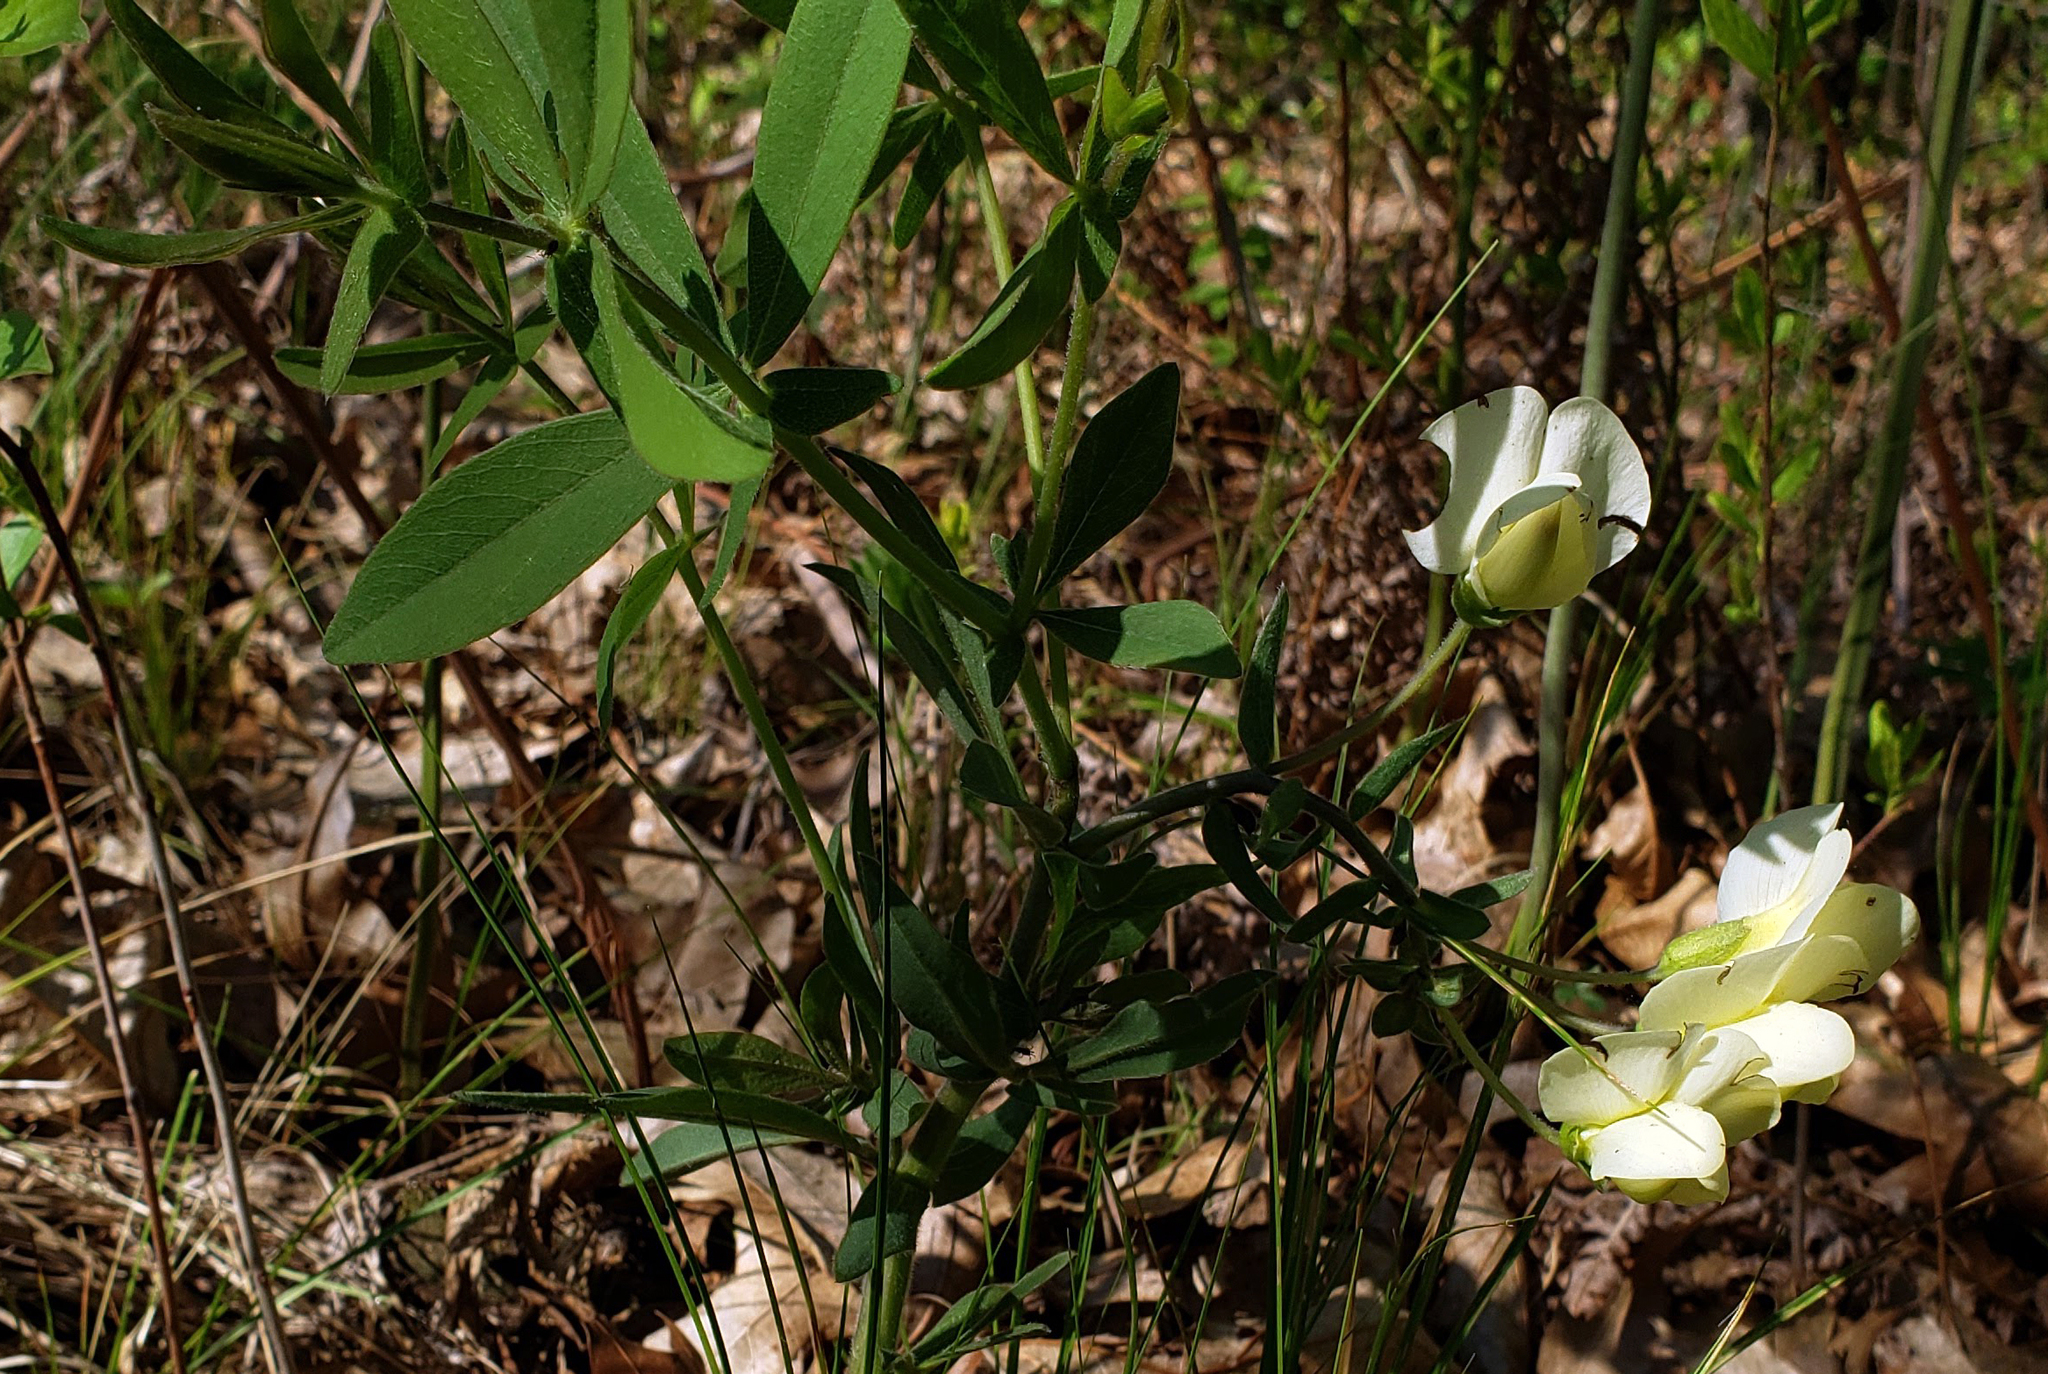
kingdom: Plantae
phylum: Tracheophyta
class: Magnoliopsida
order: Fabales
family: Fabaceae
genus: Baptisia
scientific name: Baptisia bracteata
